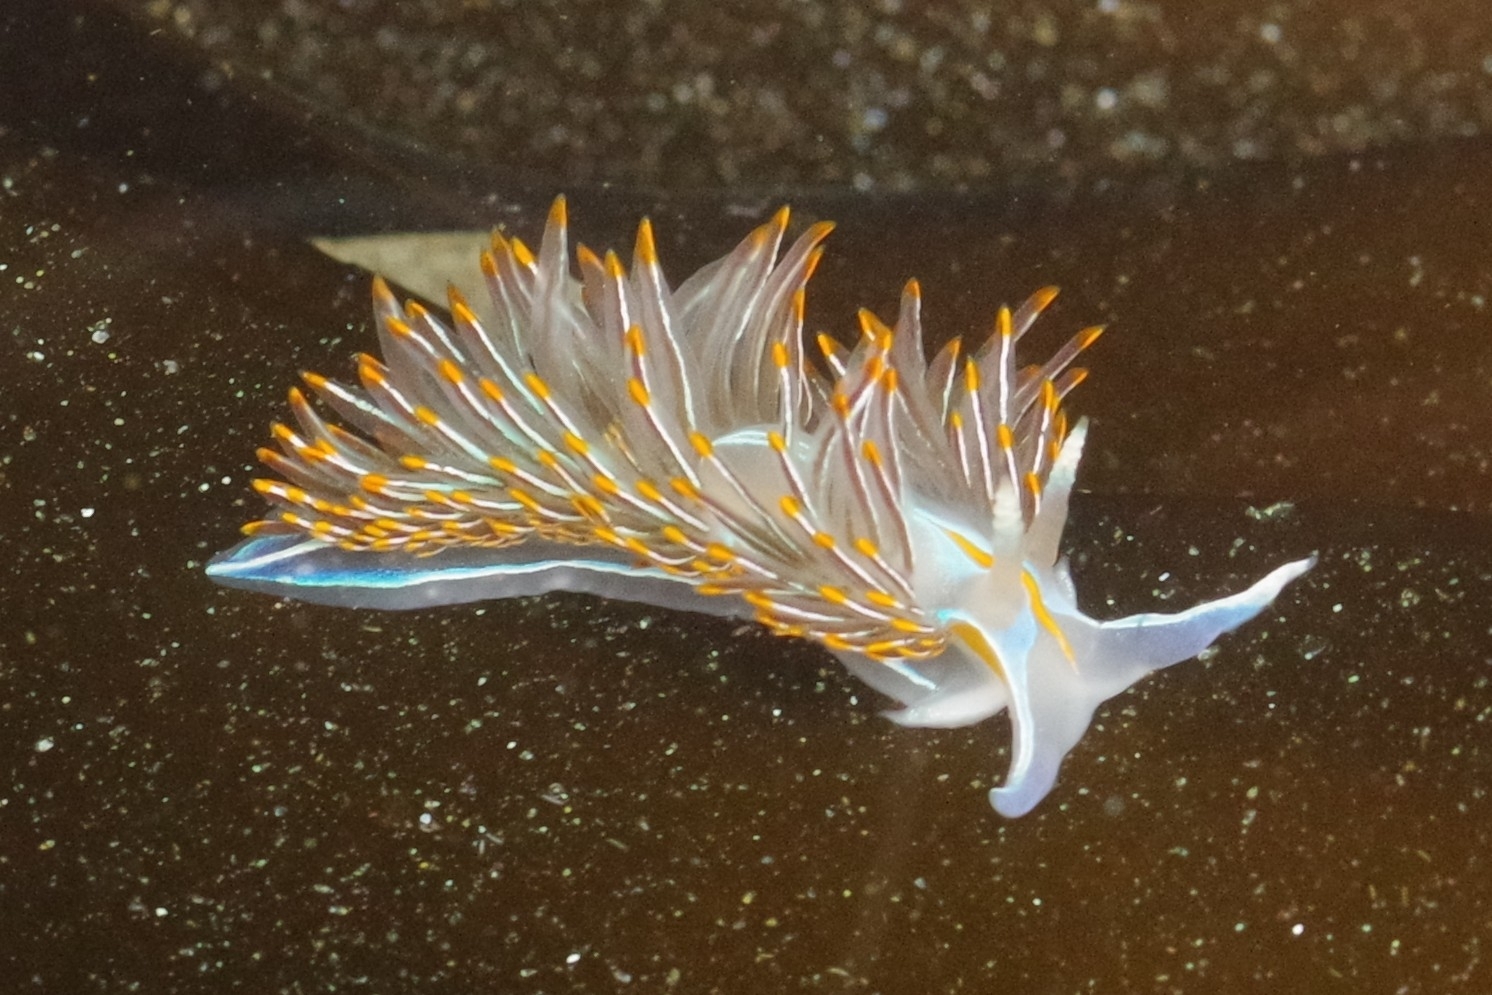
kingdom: Animalia
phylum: Mollusca
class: Gastropoda
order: Nudibranchia
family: Myrrhinidae
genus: Hermissenda
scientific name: Hermissenda crassicornis
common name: Hermissenda
